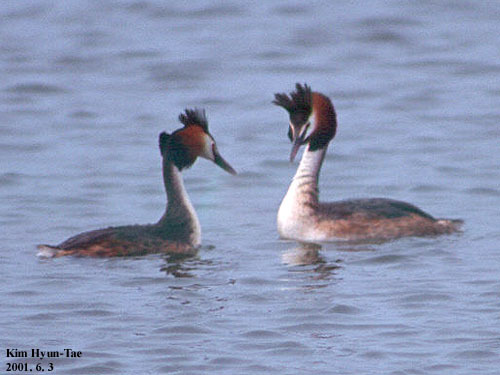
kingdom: Animalia
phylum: Chordata
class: Aves
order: Podicipediformes
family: Podicipedidae
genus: Podiceps
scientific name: Podiceps cristatus
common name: Great crested grebe
